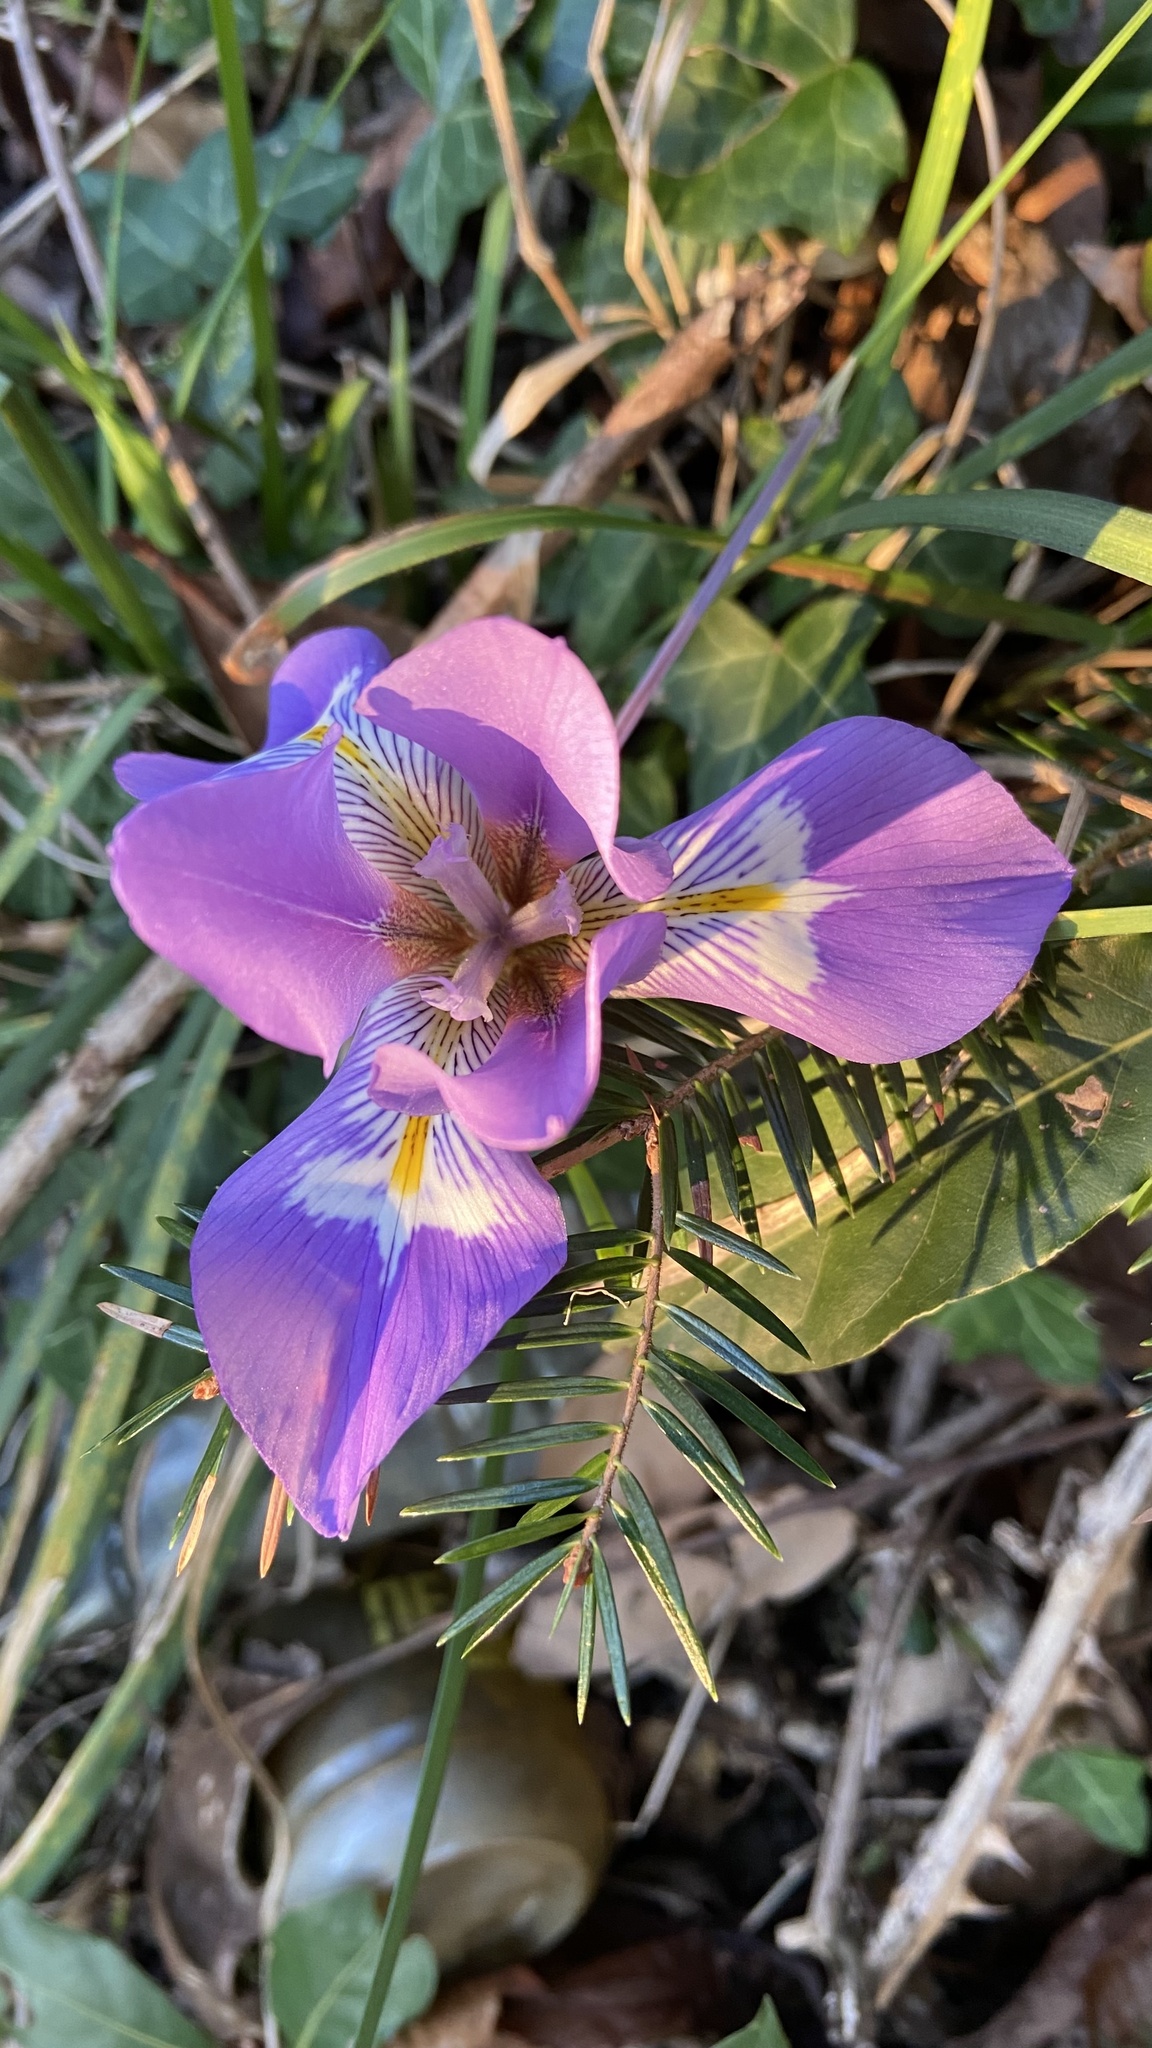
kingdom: Plantae
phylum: Tracheophyta
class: Liliopsida
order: Asparagales
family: Iridaceae
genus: Iris
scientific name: Iris unguicularis
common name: Algerian iris
